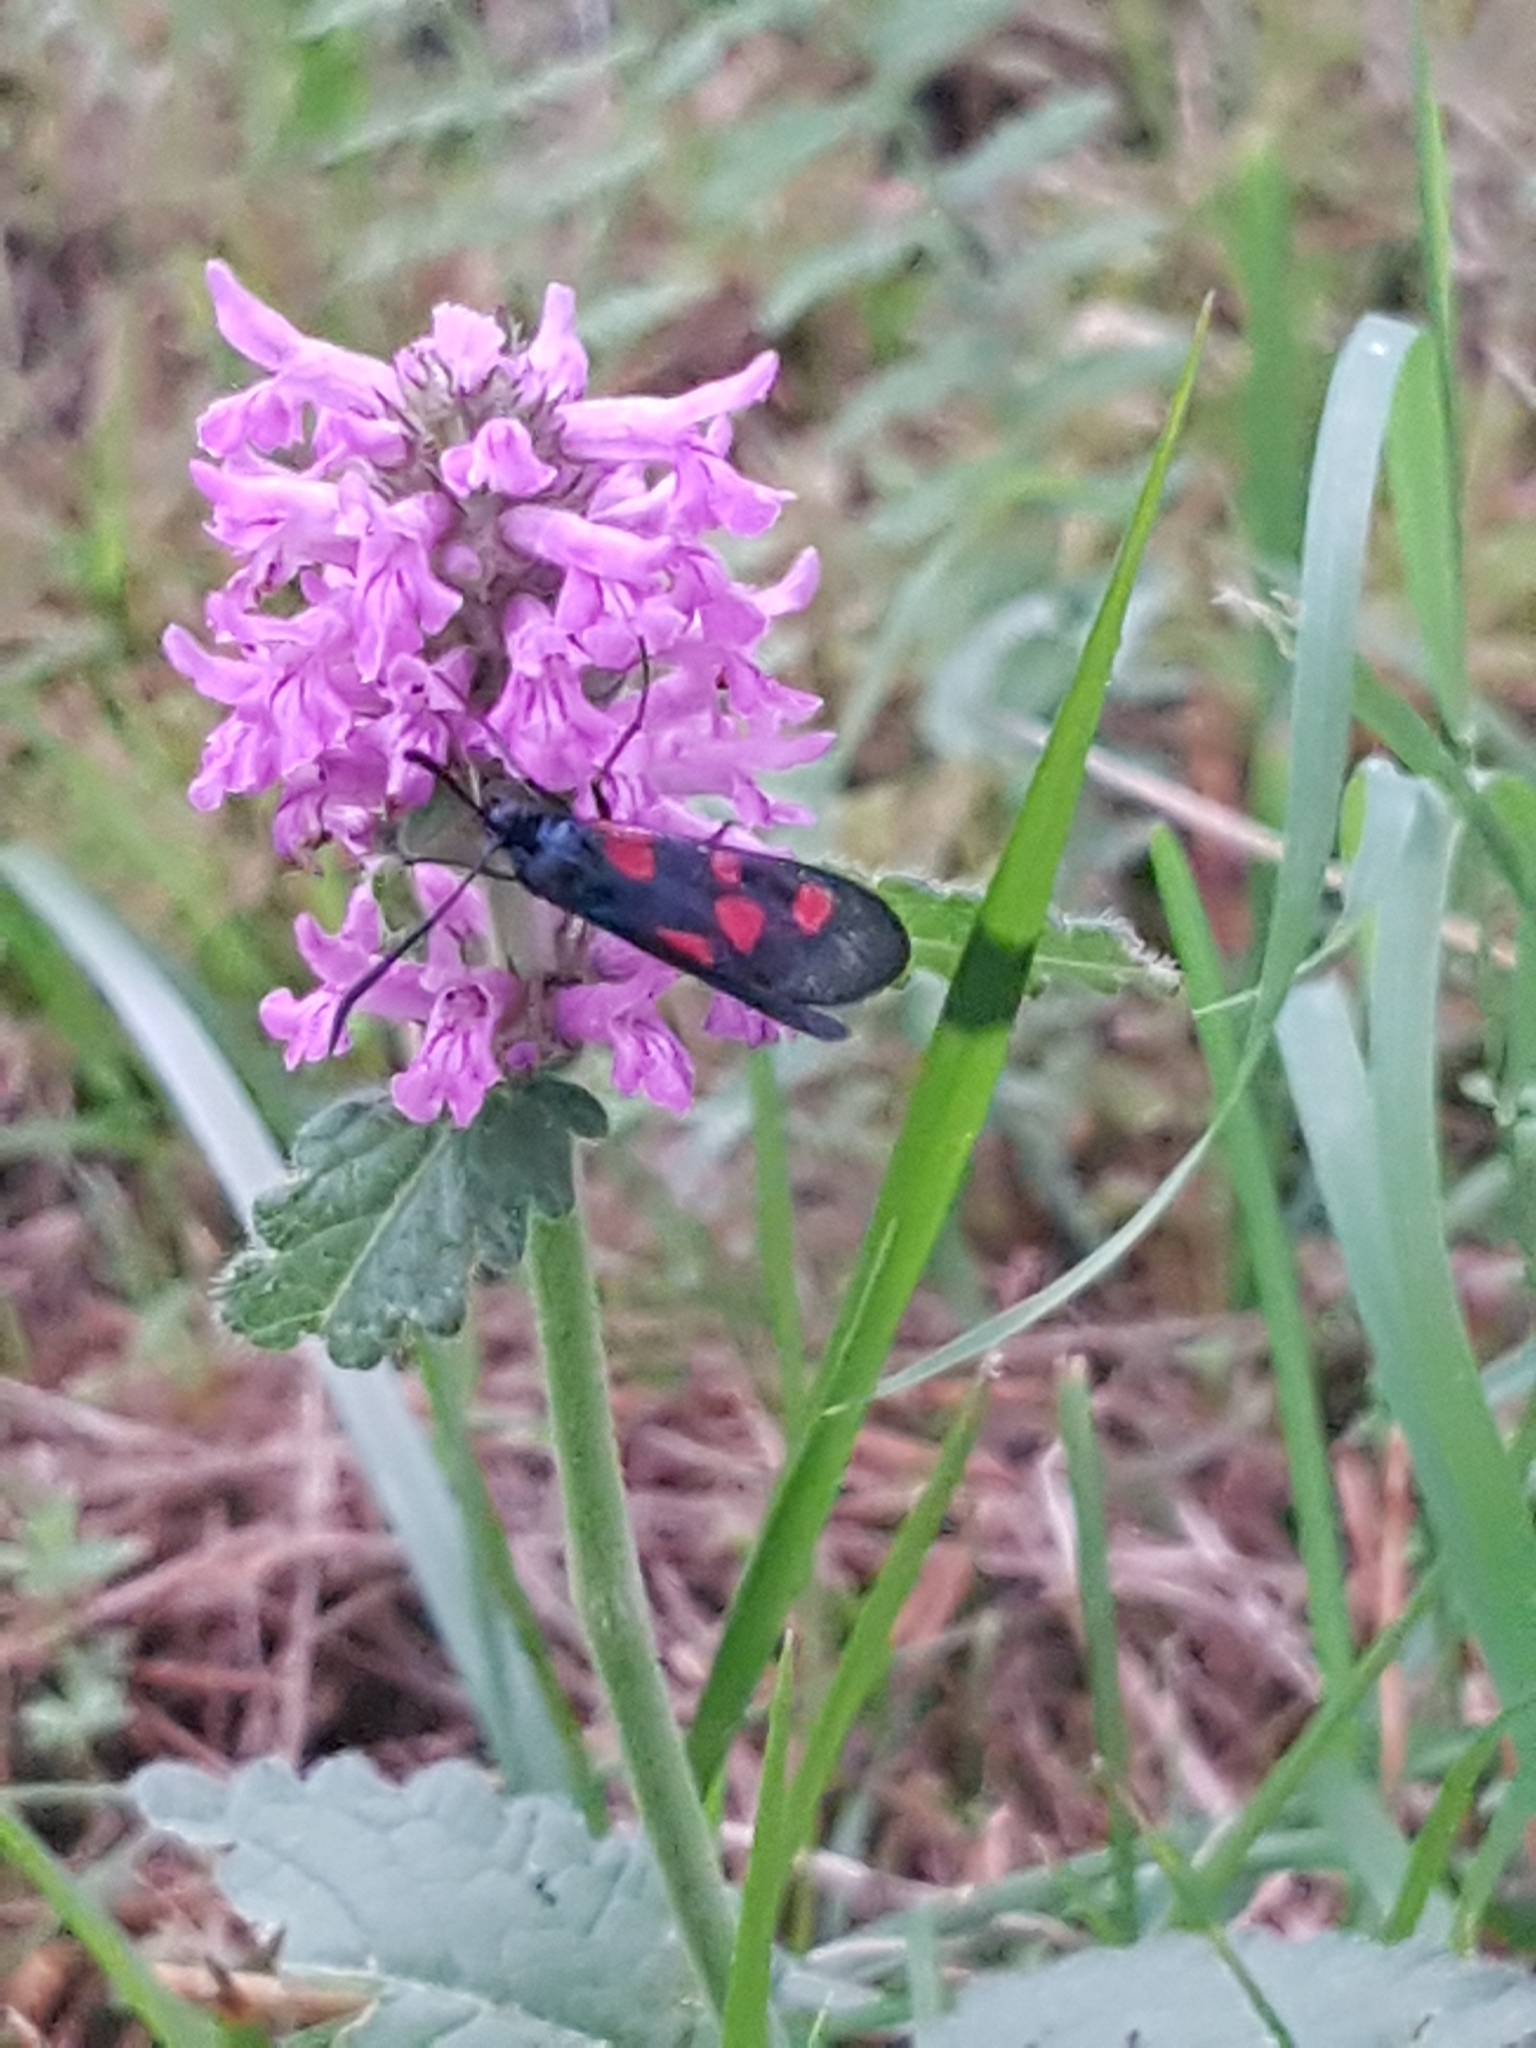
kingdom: Animalia
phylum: Arthropoda
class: Insecta
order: Lepidoptera
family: Zygaenidae
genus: Zygaena
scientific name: Zygaena trifolii
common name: Five-spot burnet
